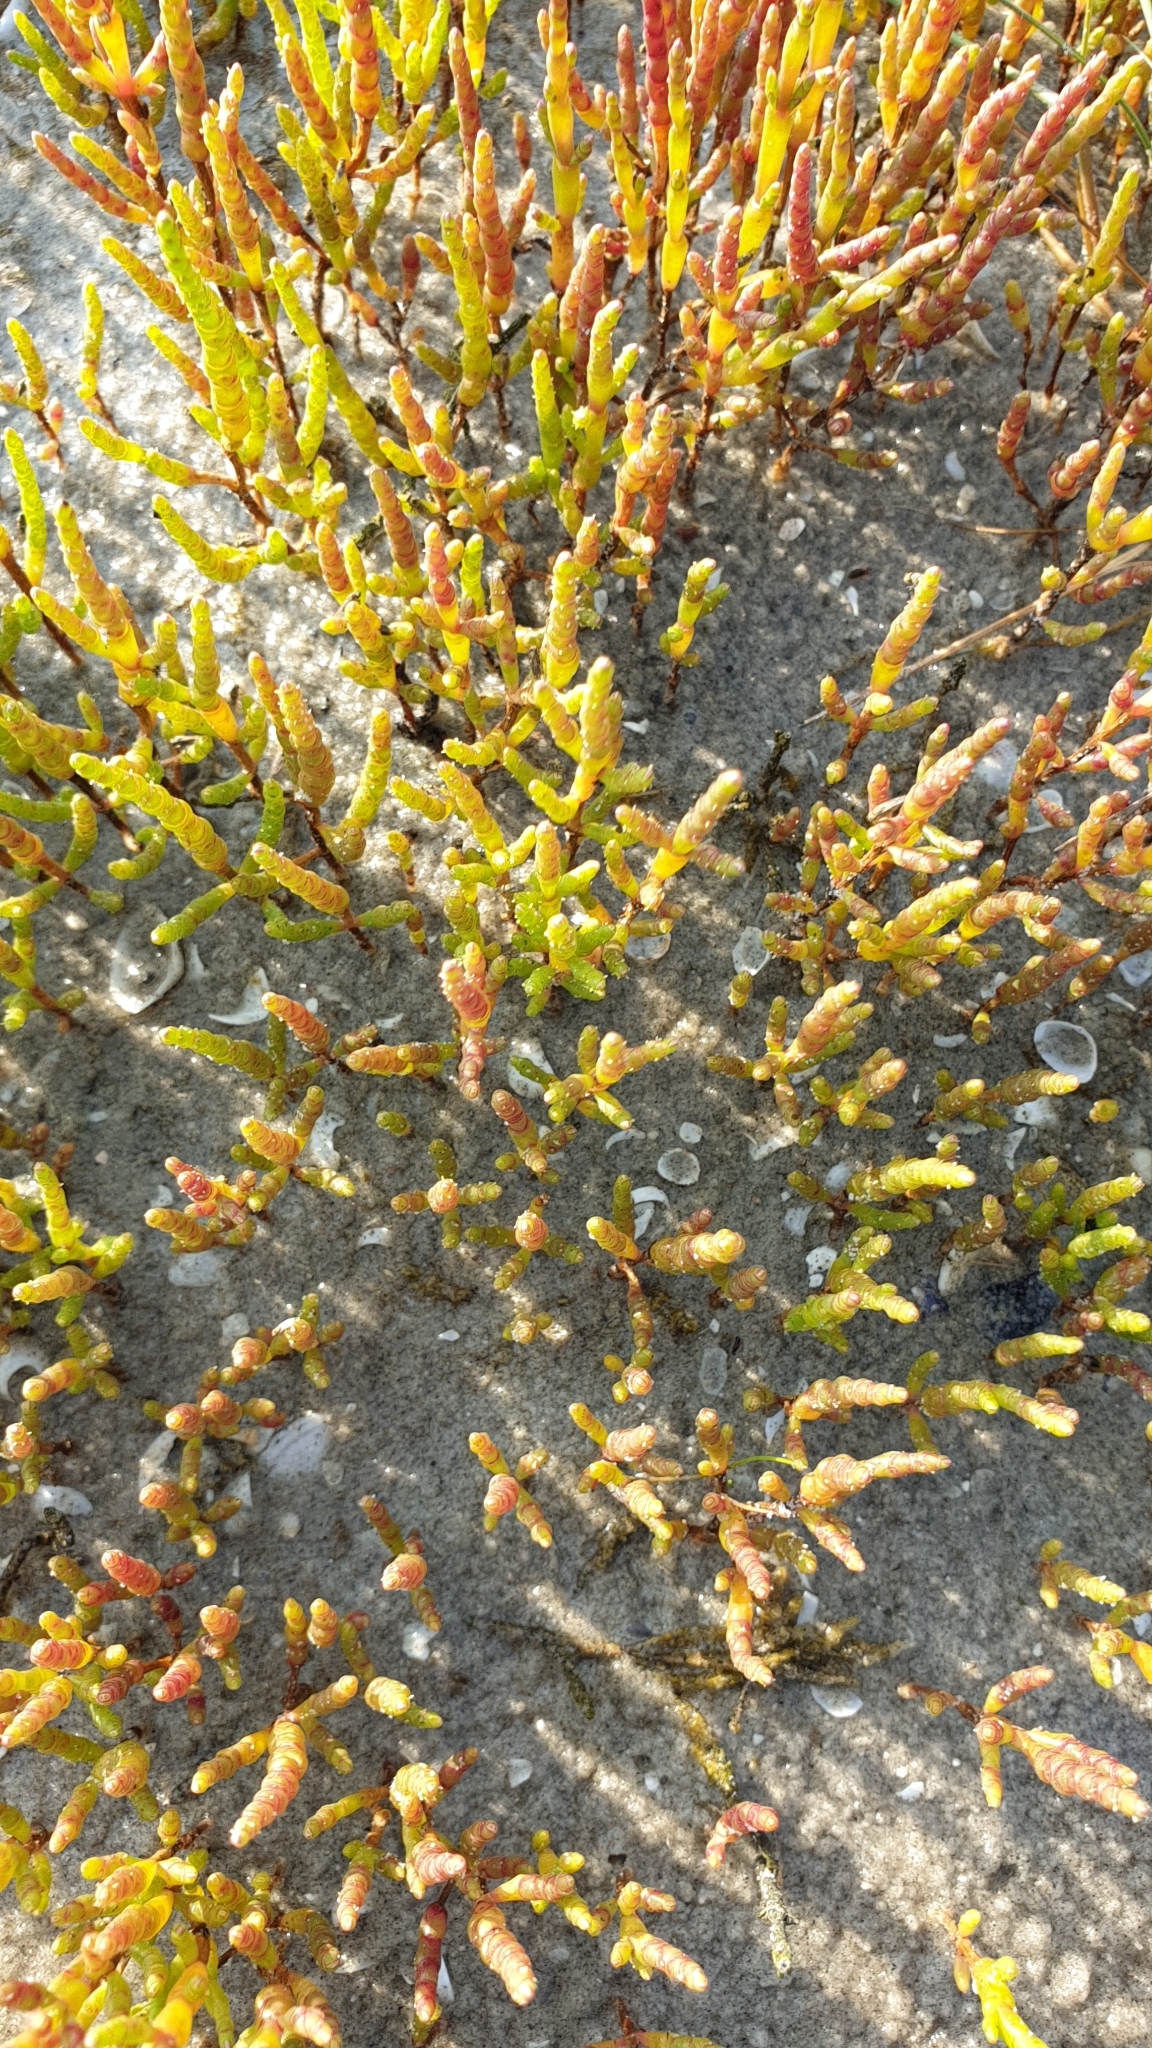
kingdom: Plantae
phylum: Tracheophyta
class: Magnoliopsida
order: Caryophyllales
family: Amaranthaceae
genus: Salicornia
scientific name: Salicornia europaea
